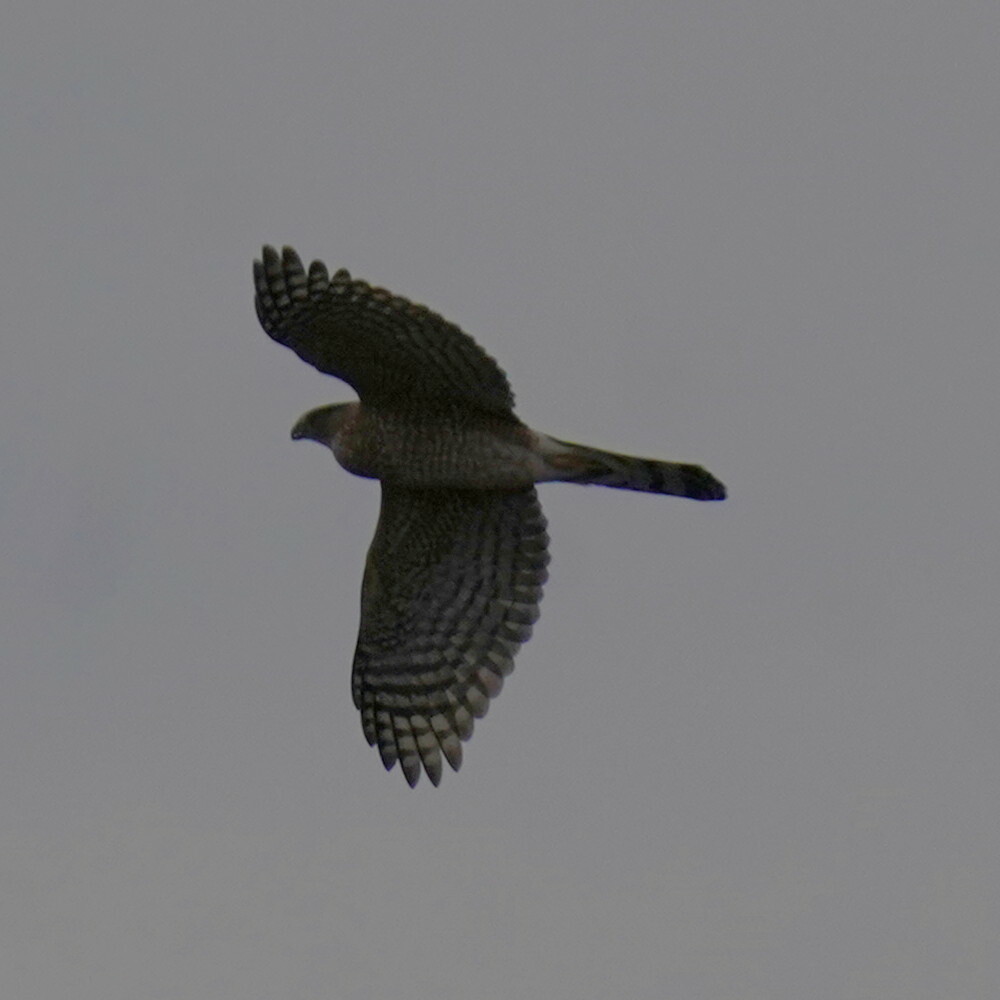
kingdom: Animalia
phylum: Chordata
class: Aves
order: Accipitriformes
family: Accipitridae
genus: Accipiter
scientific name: Accipiter cooperii
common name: Cooper's hawk
